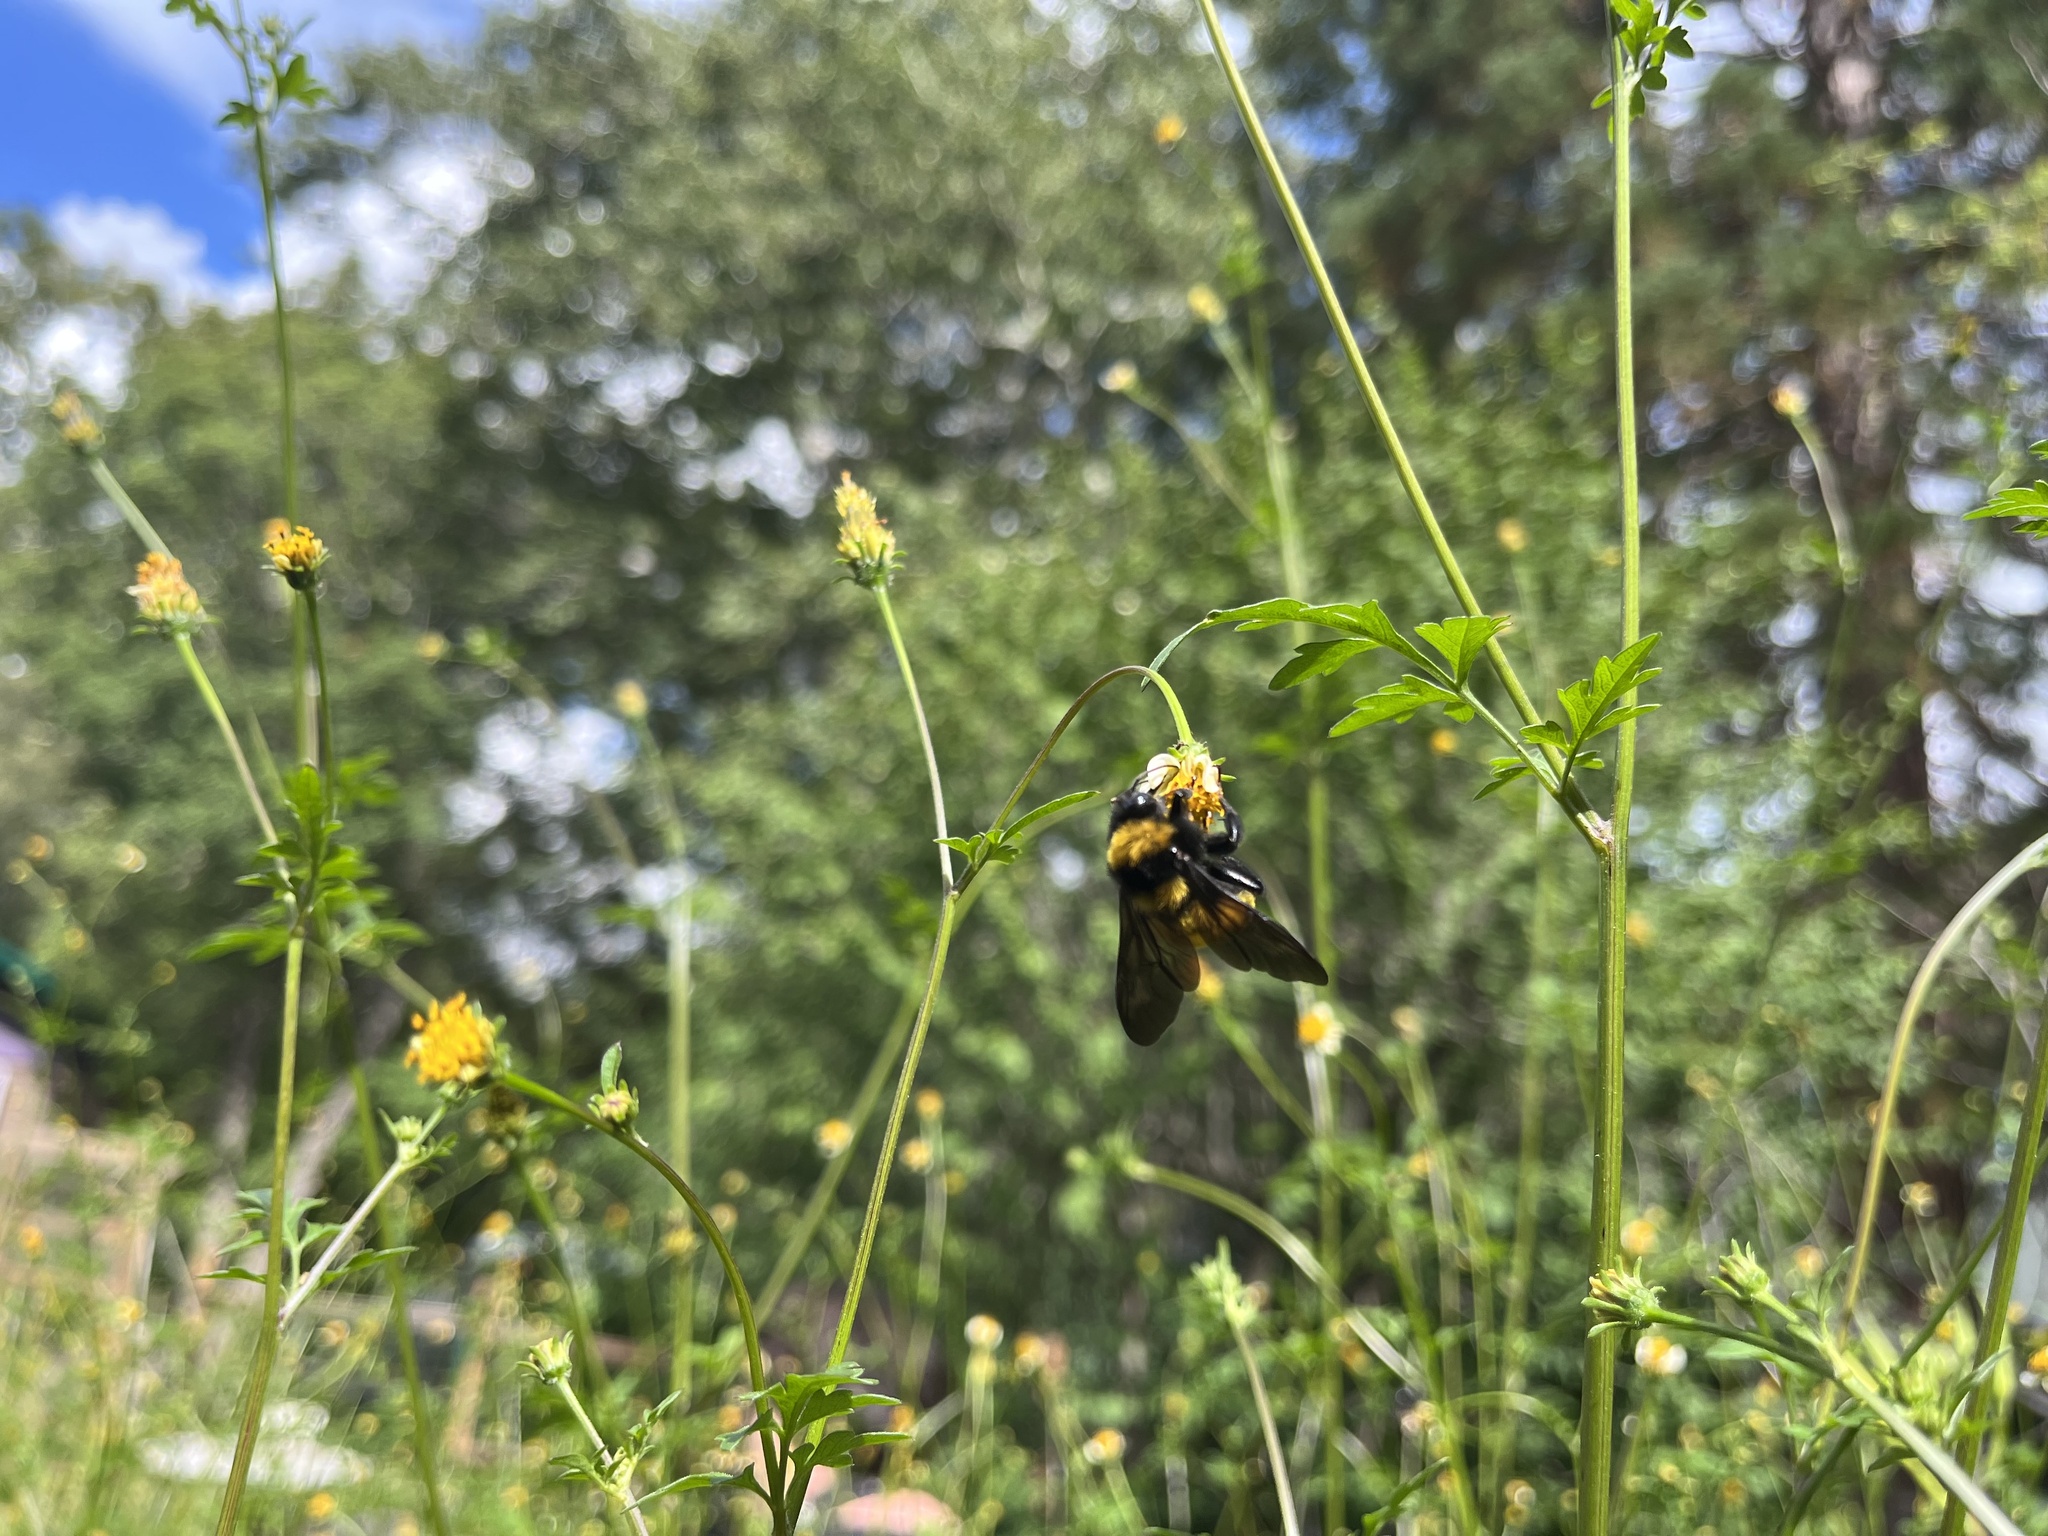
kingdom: Animalia
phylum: Arthropoda
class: Insecta
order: Hymenoptera
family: Apidae
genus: Bombus
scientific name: Bombus sonorus
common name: Sonoran bumble bee
